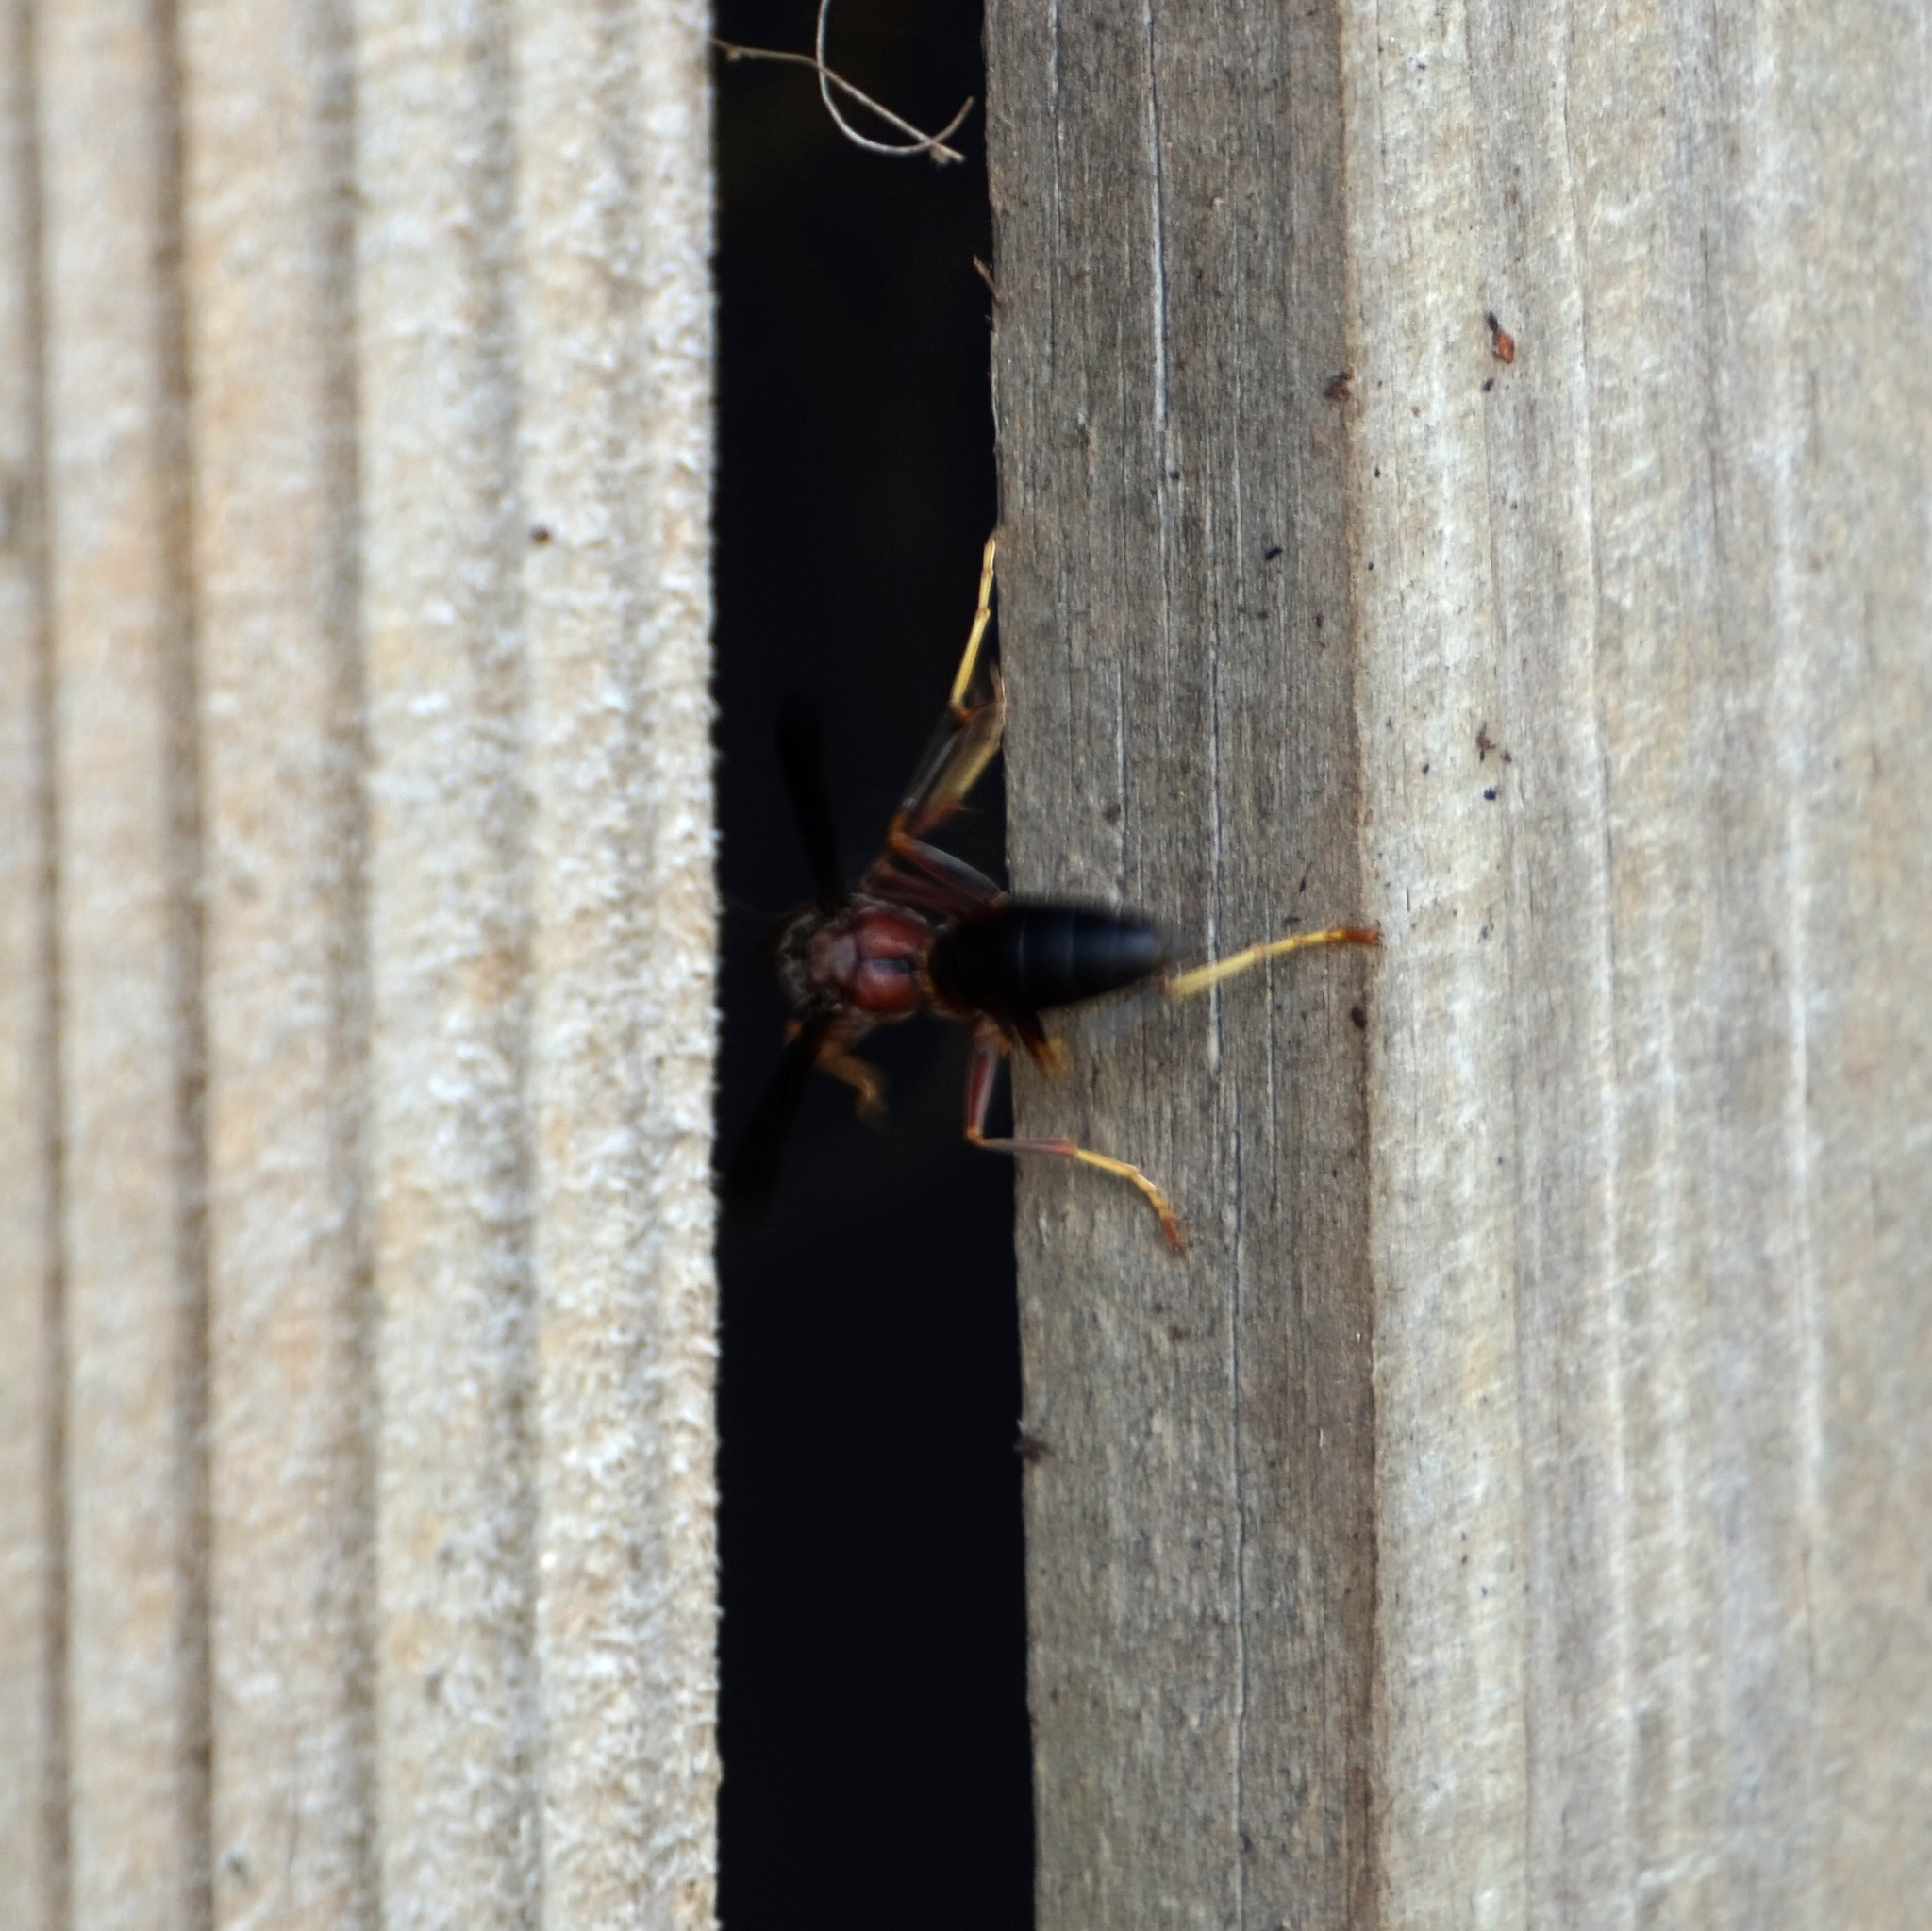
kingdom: Animalia
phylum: Arthropoda
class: Insecta
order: Hymenoptera
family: Vespidae
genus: Fuscopolistes
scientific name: Fuscopolistes
